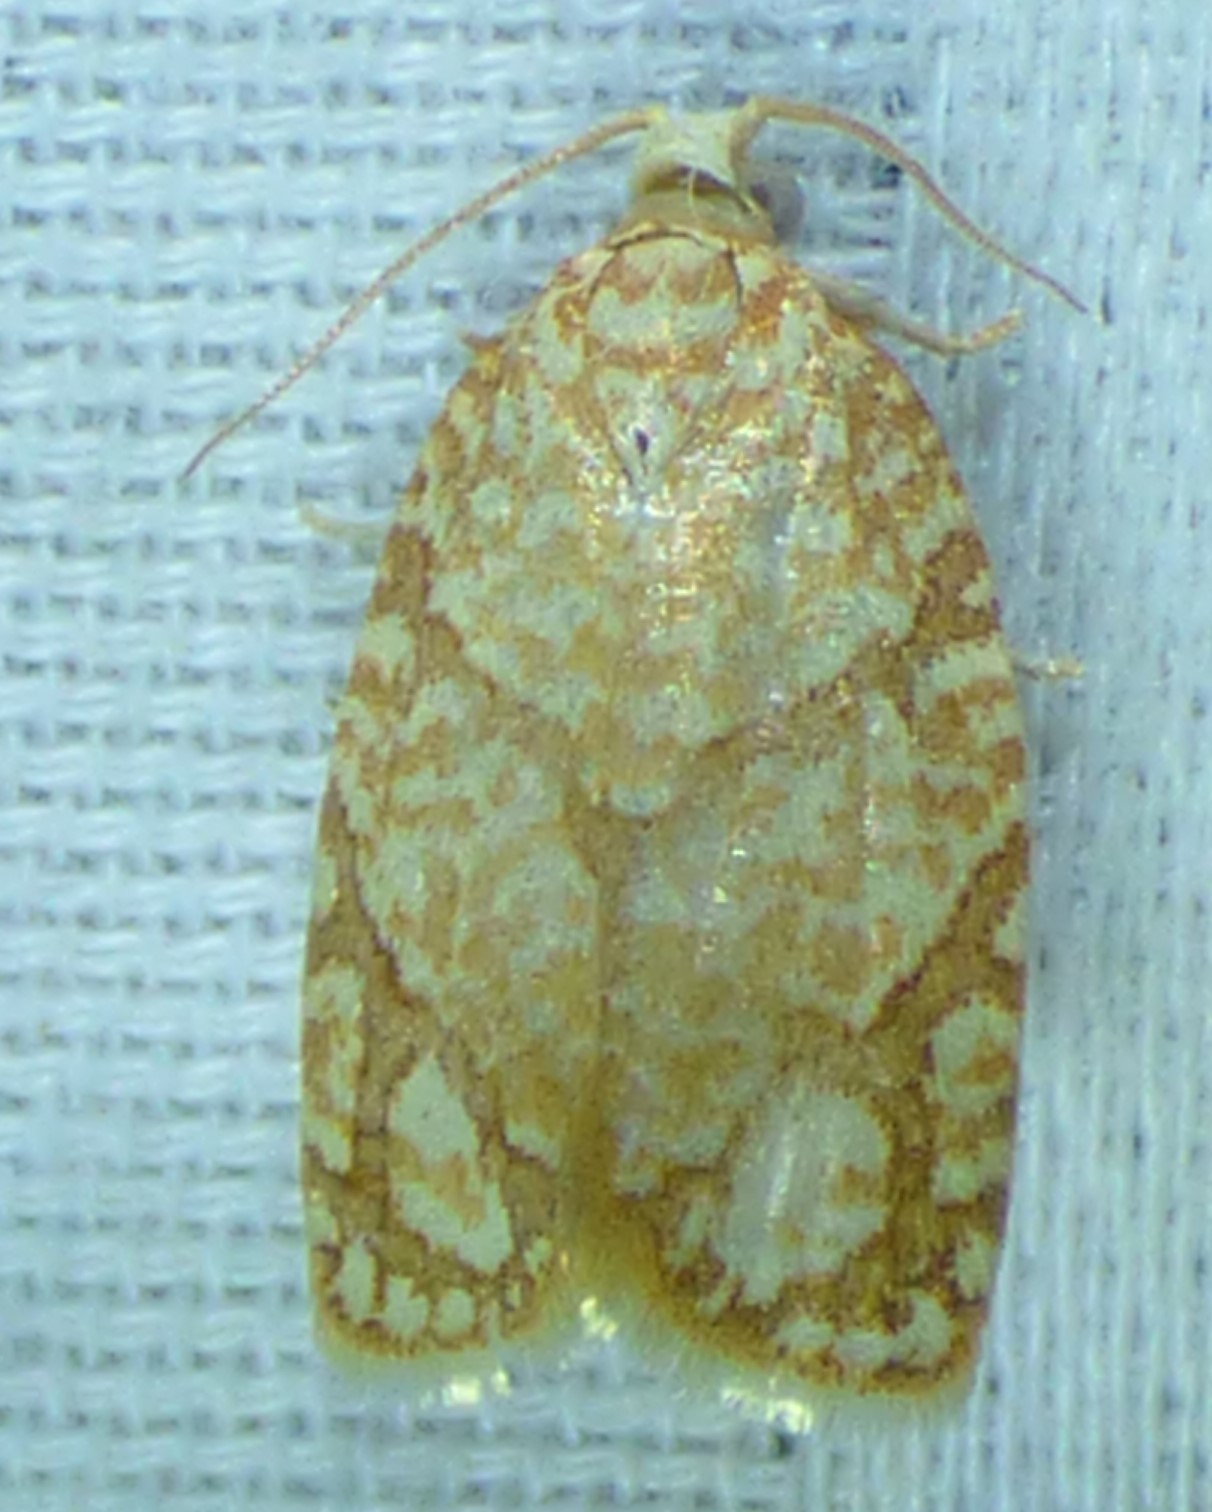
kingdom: Animalia
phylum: Arthropoda
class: Insecta
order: Lepidoptera
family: Tortricidae
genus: Argyrotaenia
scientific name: Argyrotaenia quercifoliana
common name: Yellow-winged oak leafroller moth
